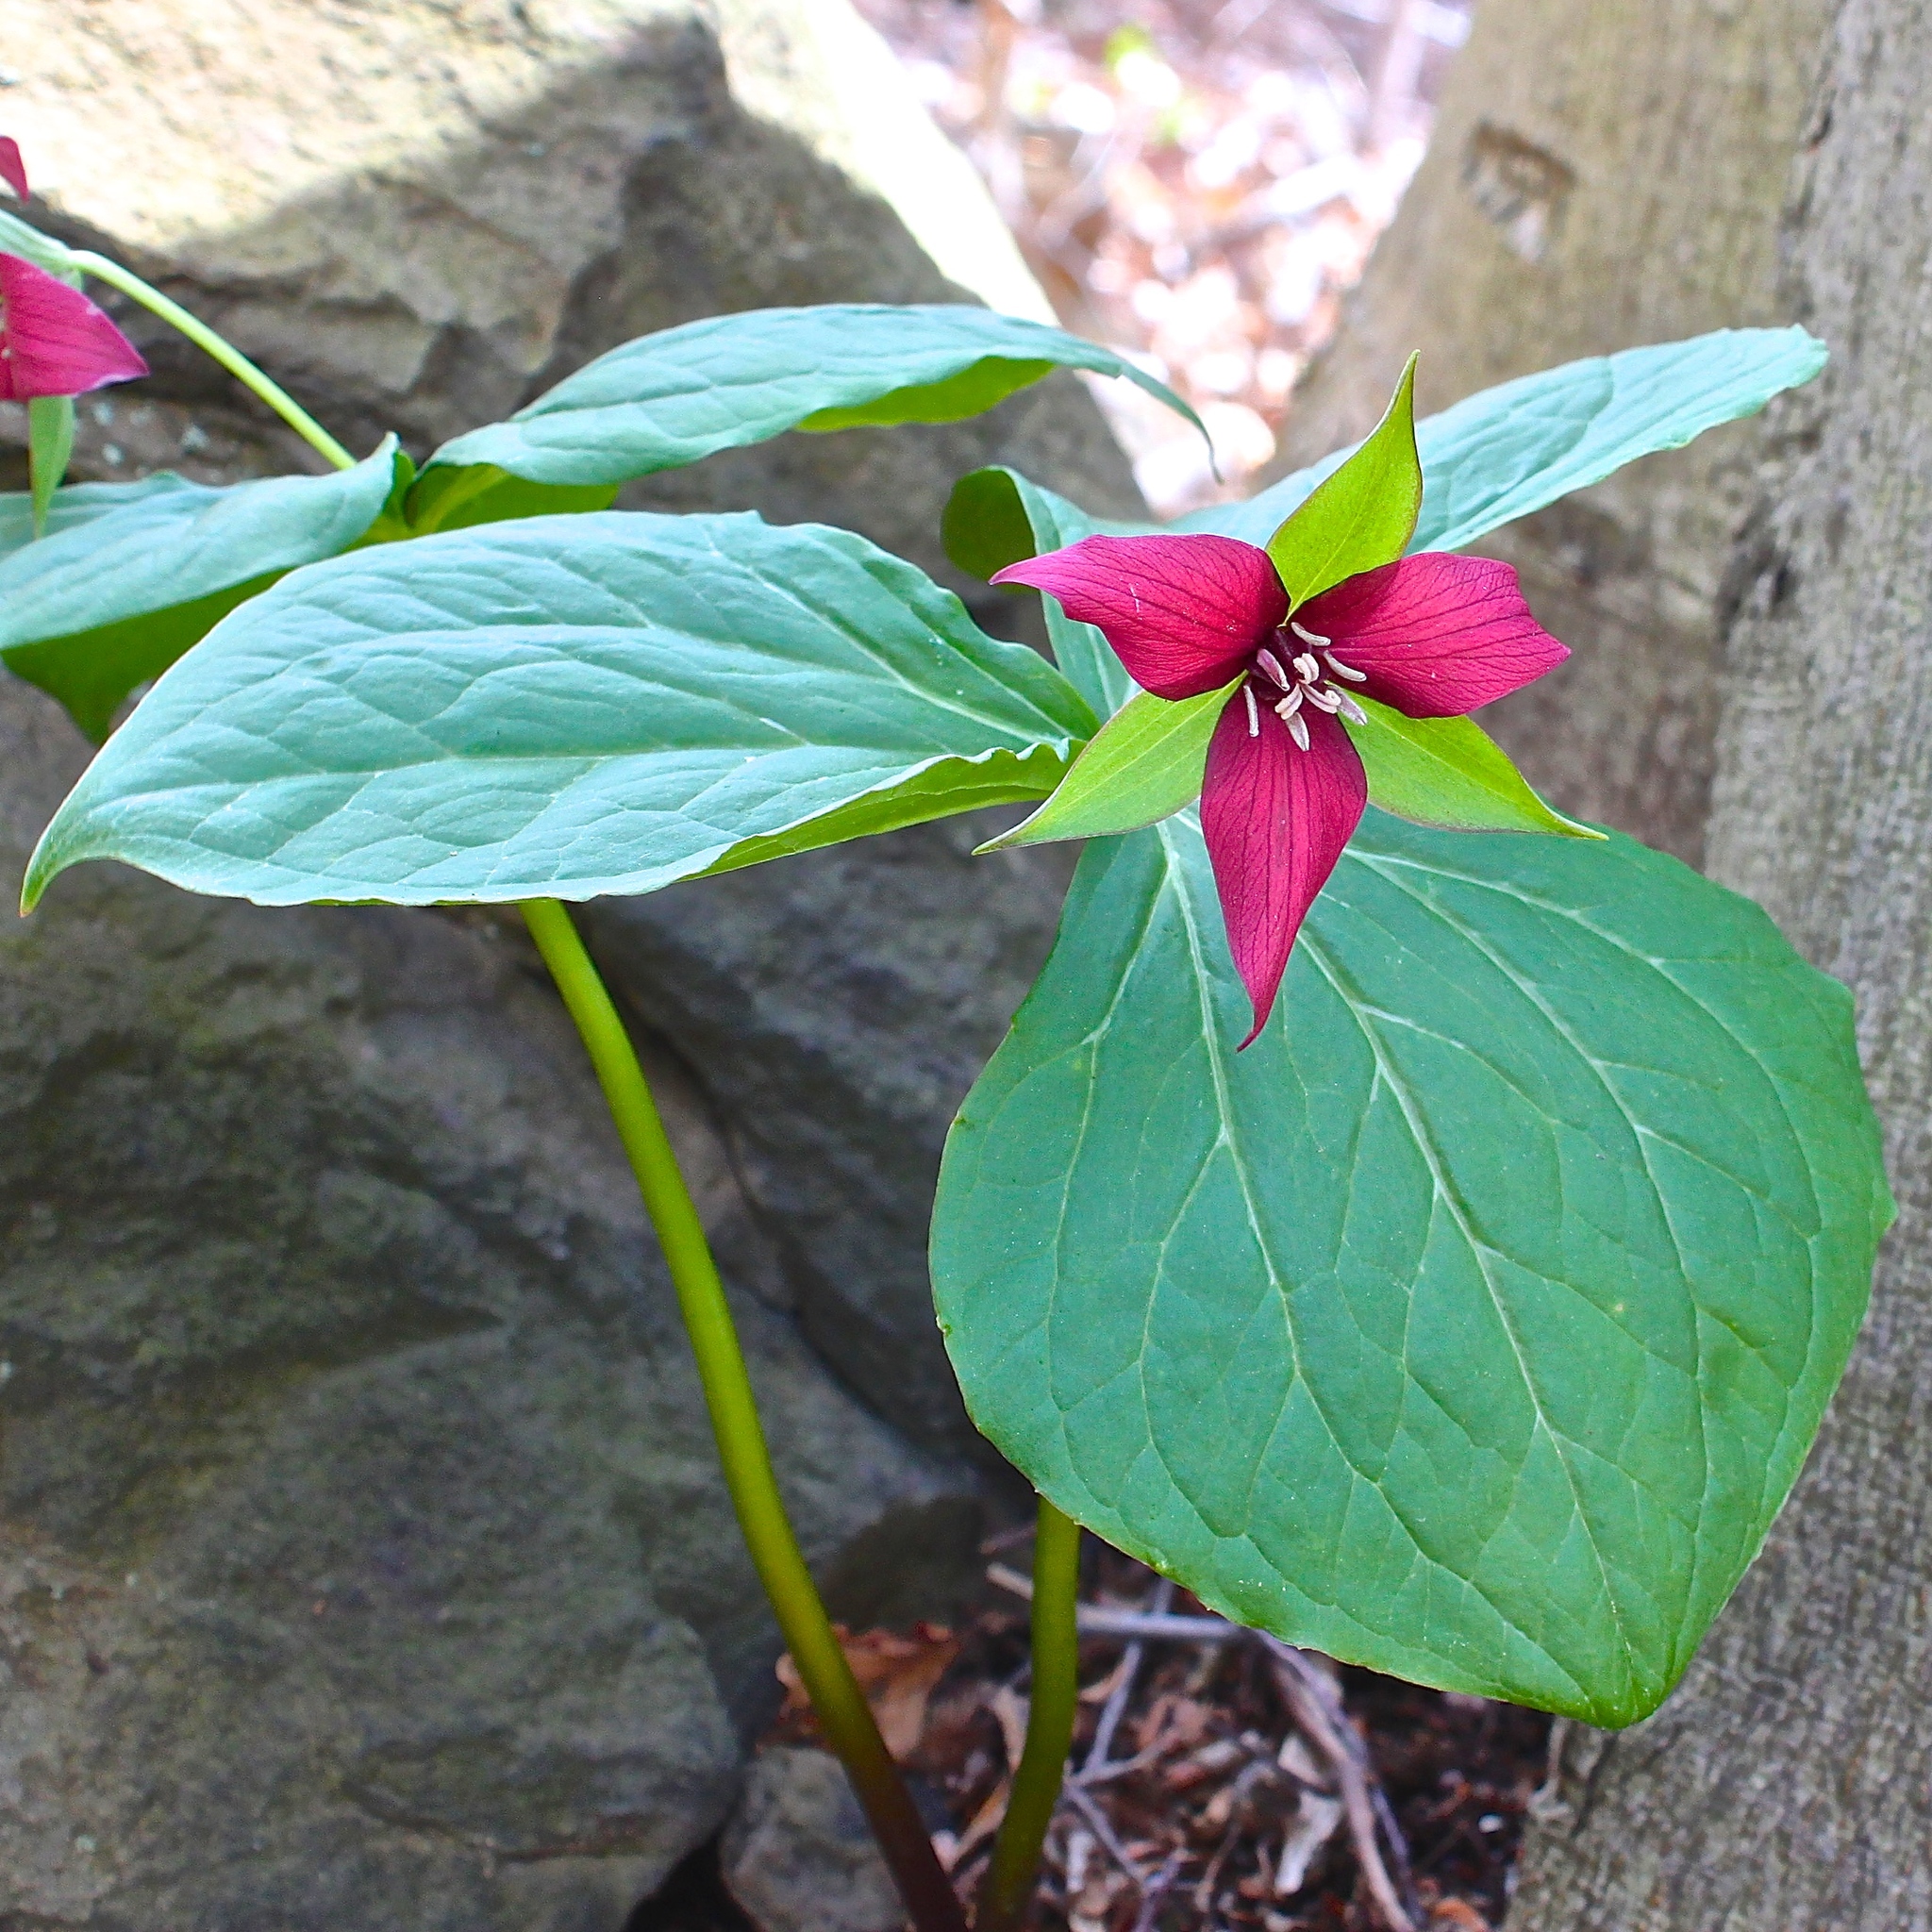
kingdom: Plantae
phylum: Tracheophyta
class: Liliopsida
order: Liliales
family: Melanthiaceae
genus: Trillium
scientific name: Trillium erectum
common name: Purple trillium
